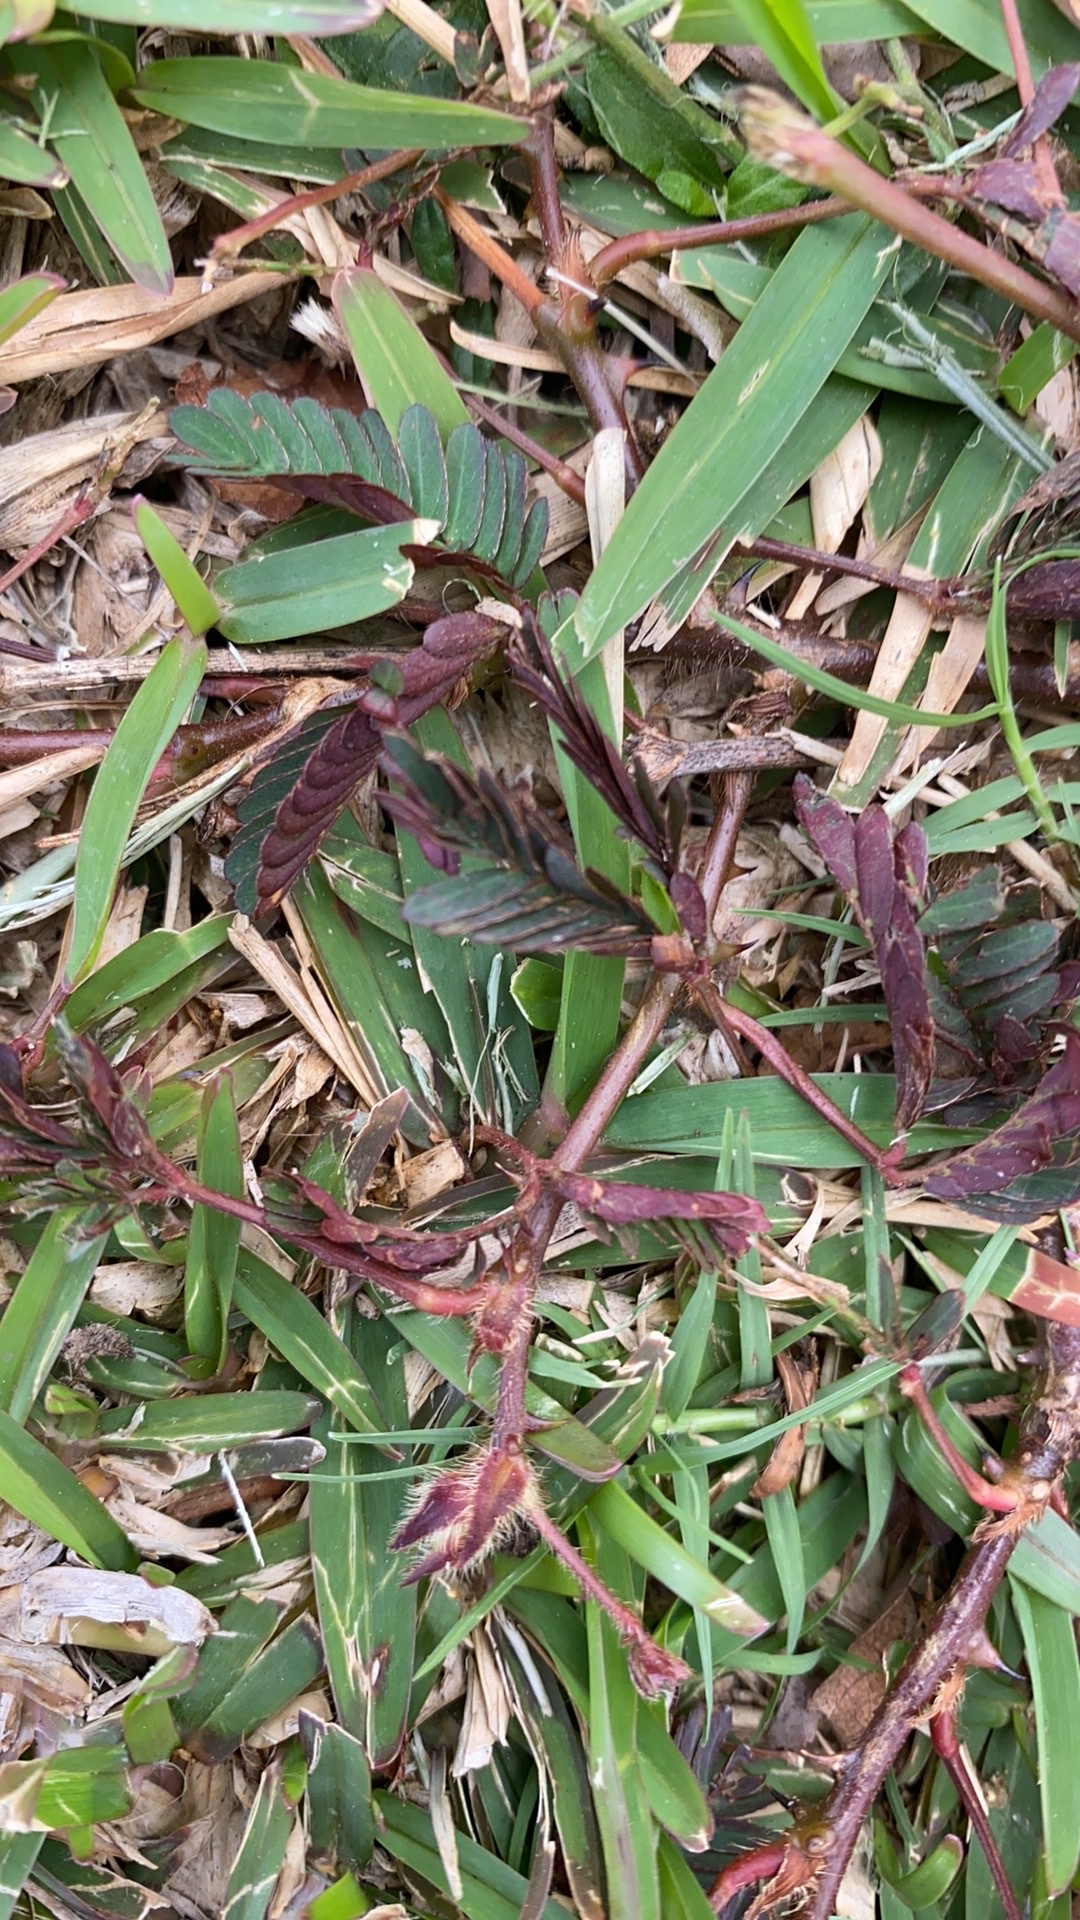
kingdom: Plantae
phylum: Tracheophyta
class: Magnoliopsida
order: Fabales
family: Fabaceae
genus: Mimosa
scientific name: Mimosa pudica
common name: Sensitive plant
